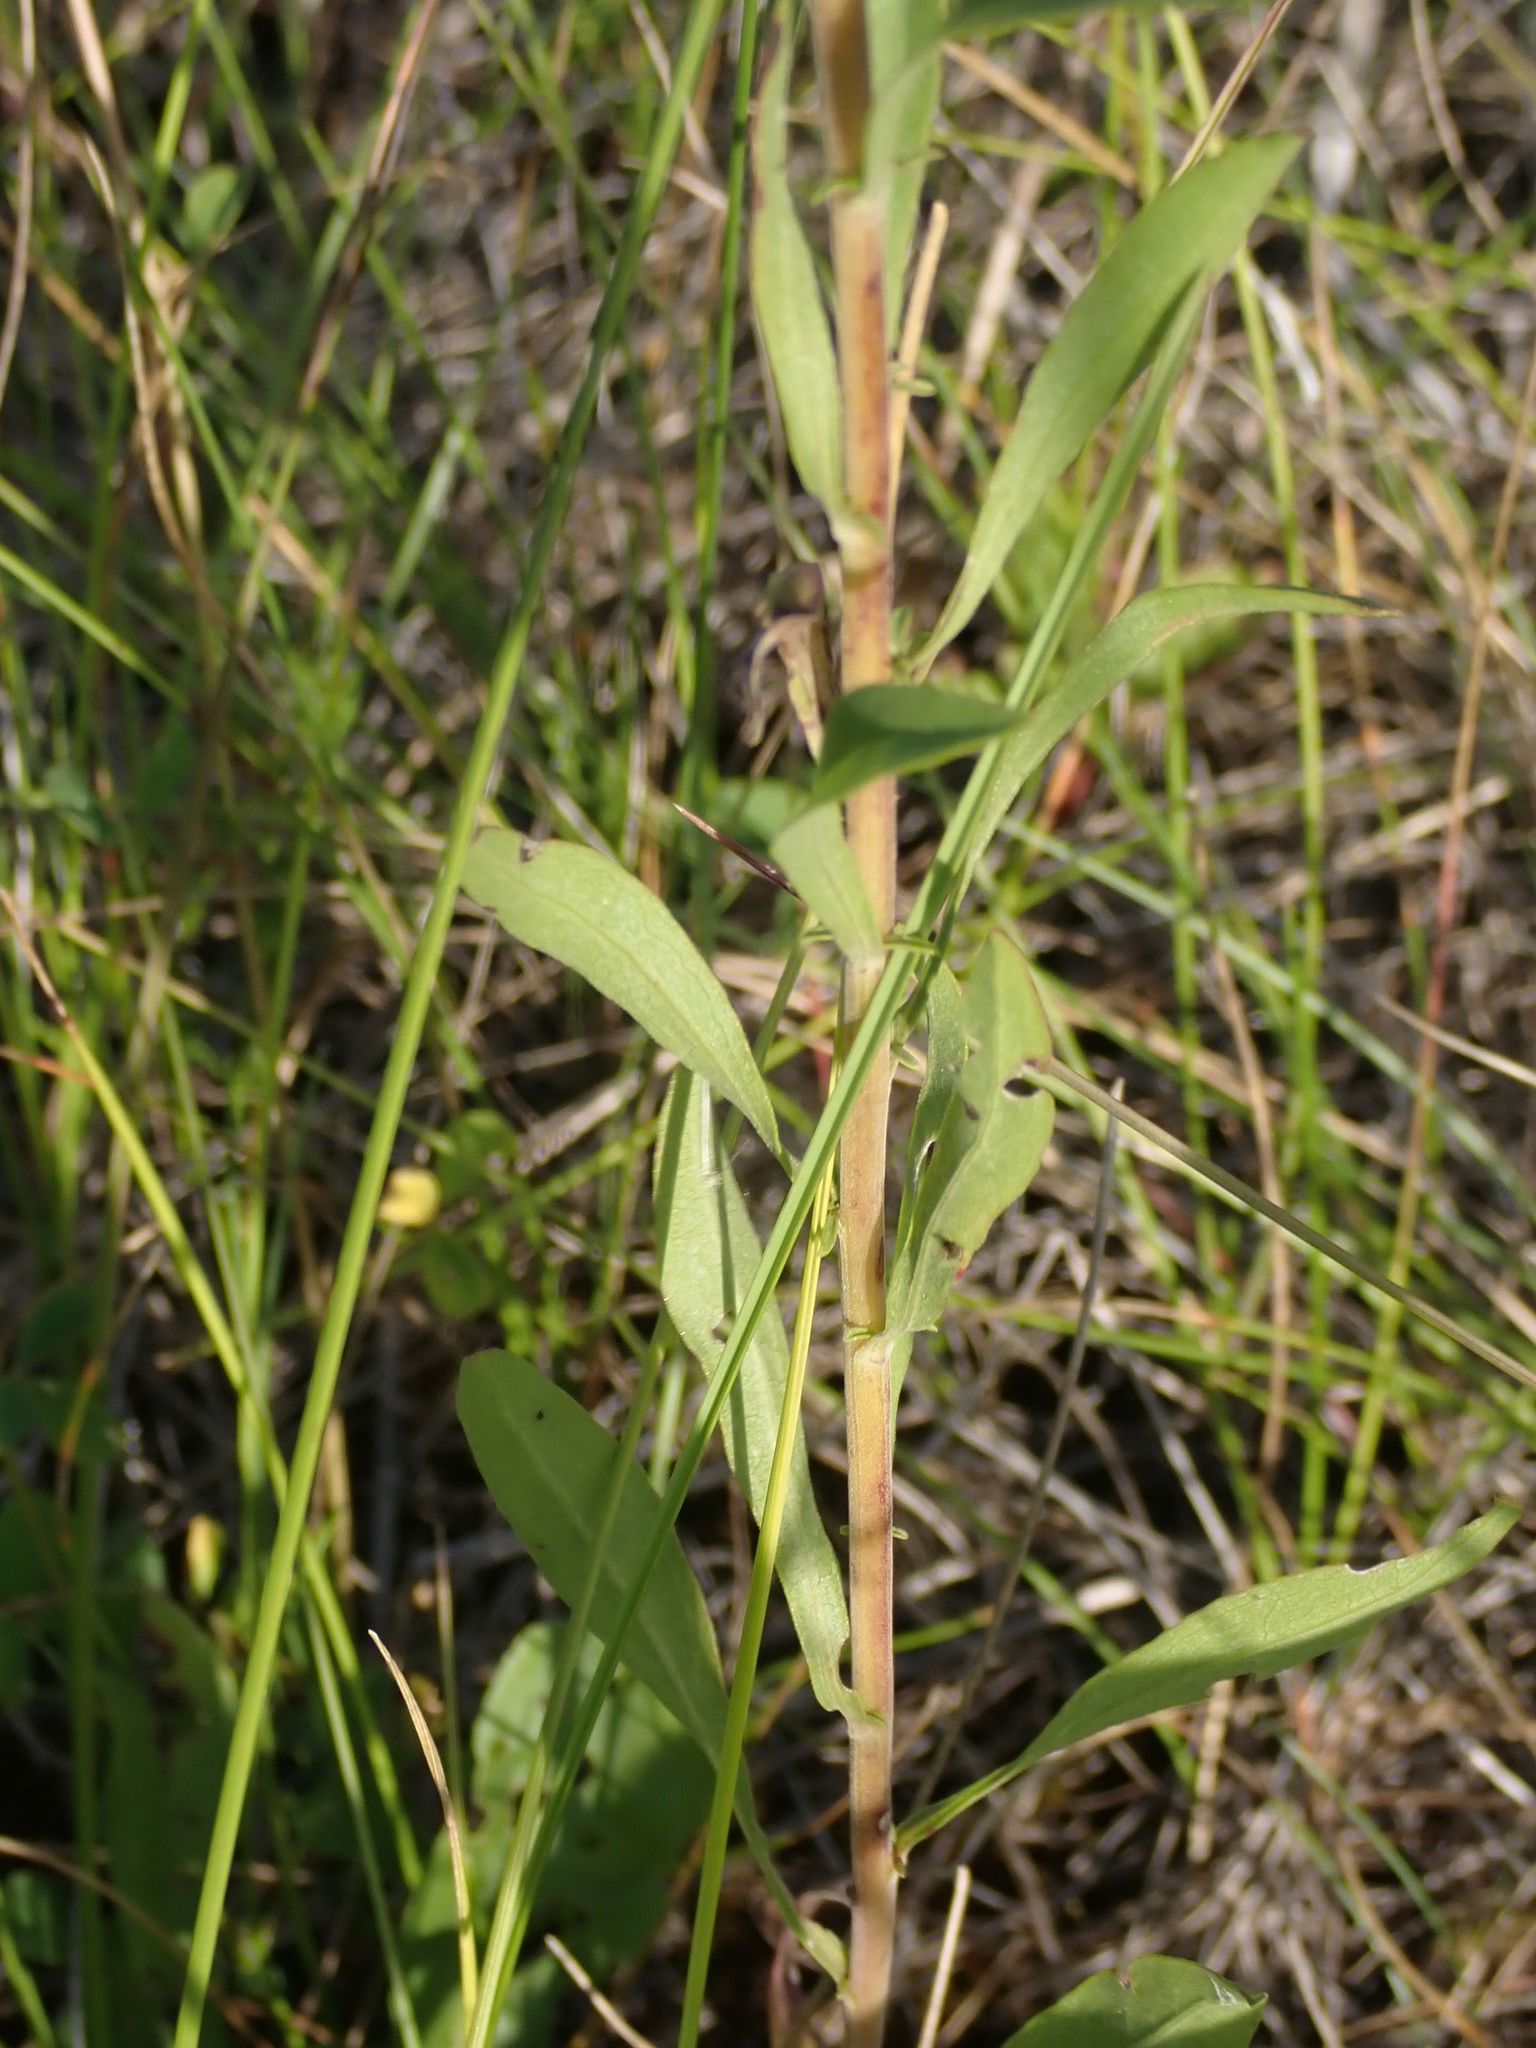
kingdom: Plantae
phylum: Tracheophyta
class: Magnoliopsida
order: Asterales
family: Asteraceae
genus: Solidago
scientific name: Solidago missouriensis
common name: Prairie goldenrod
